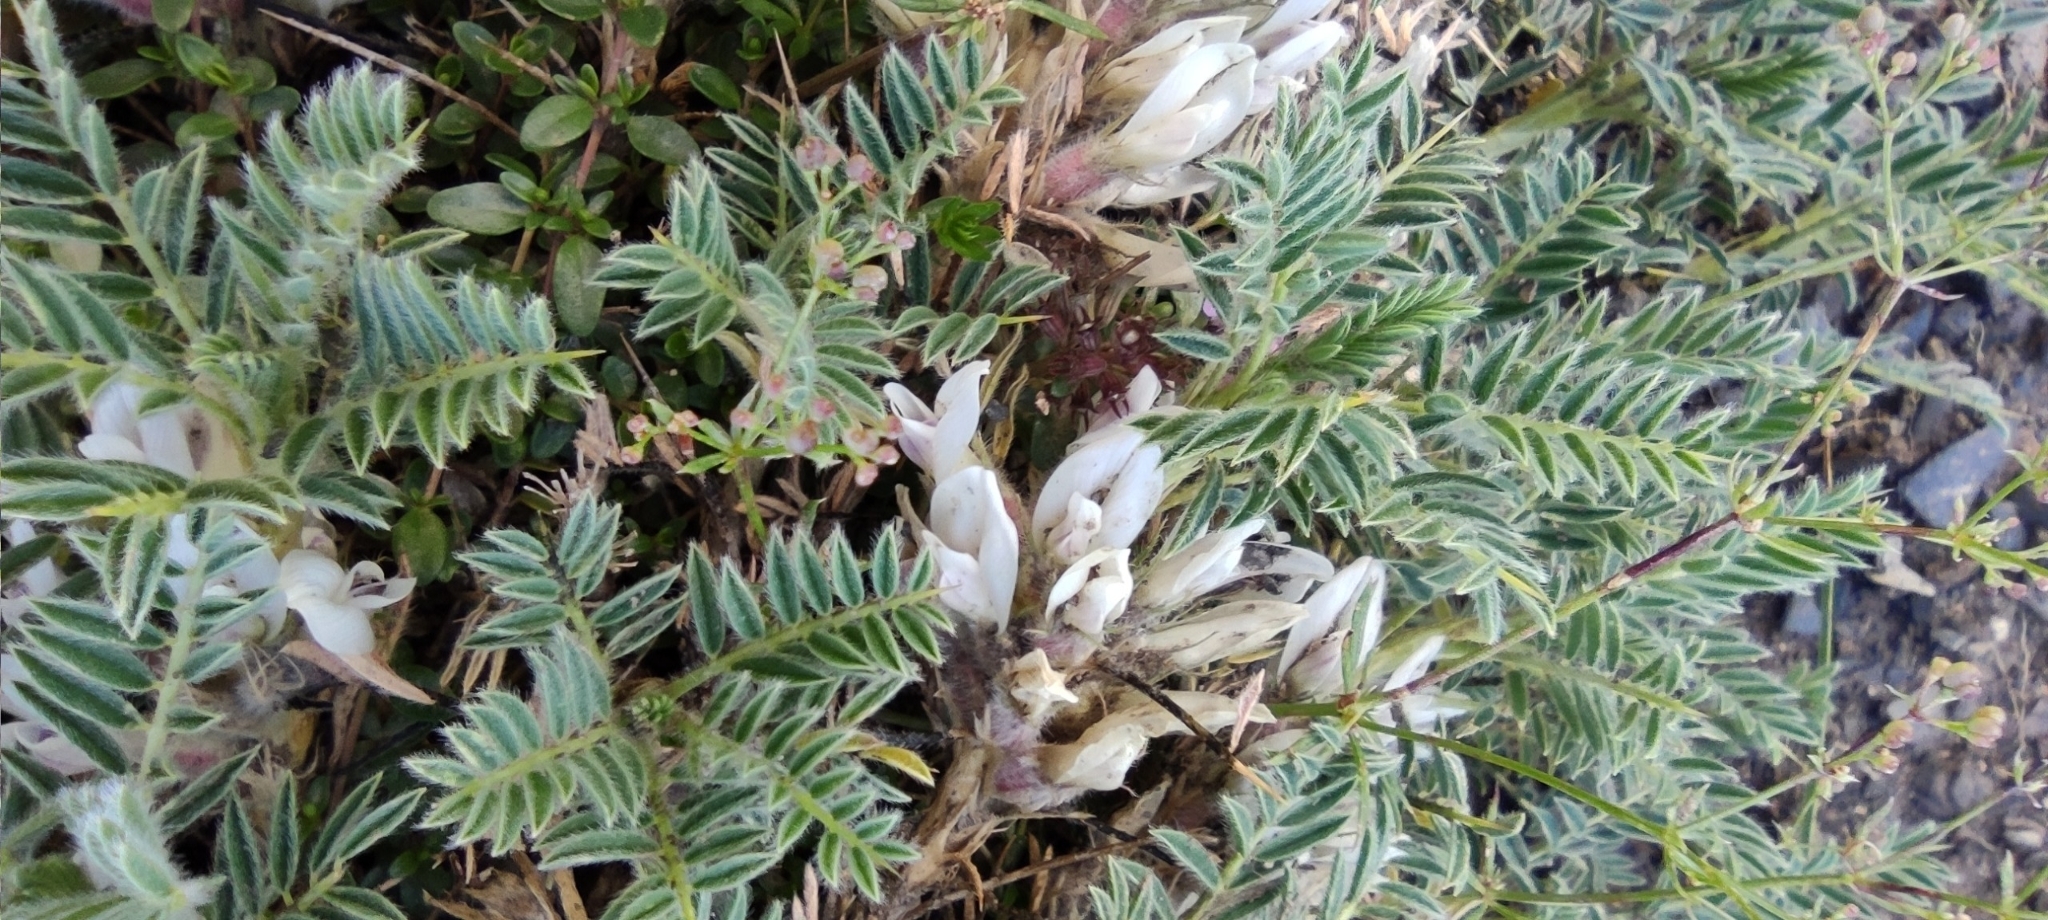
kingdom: Plantae
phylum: Tracheophyta
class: Magnoliopsida
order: Fabales
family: Fabaceae
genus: Astragalus
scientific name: Astragalus sempervirens
